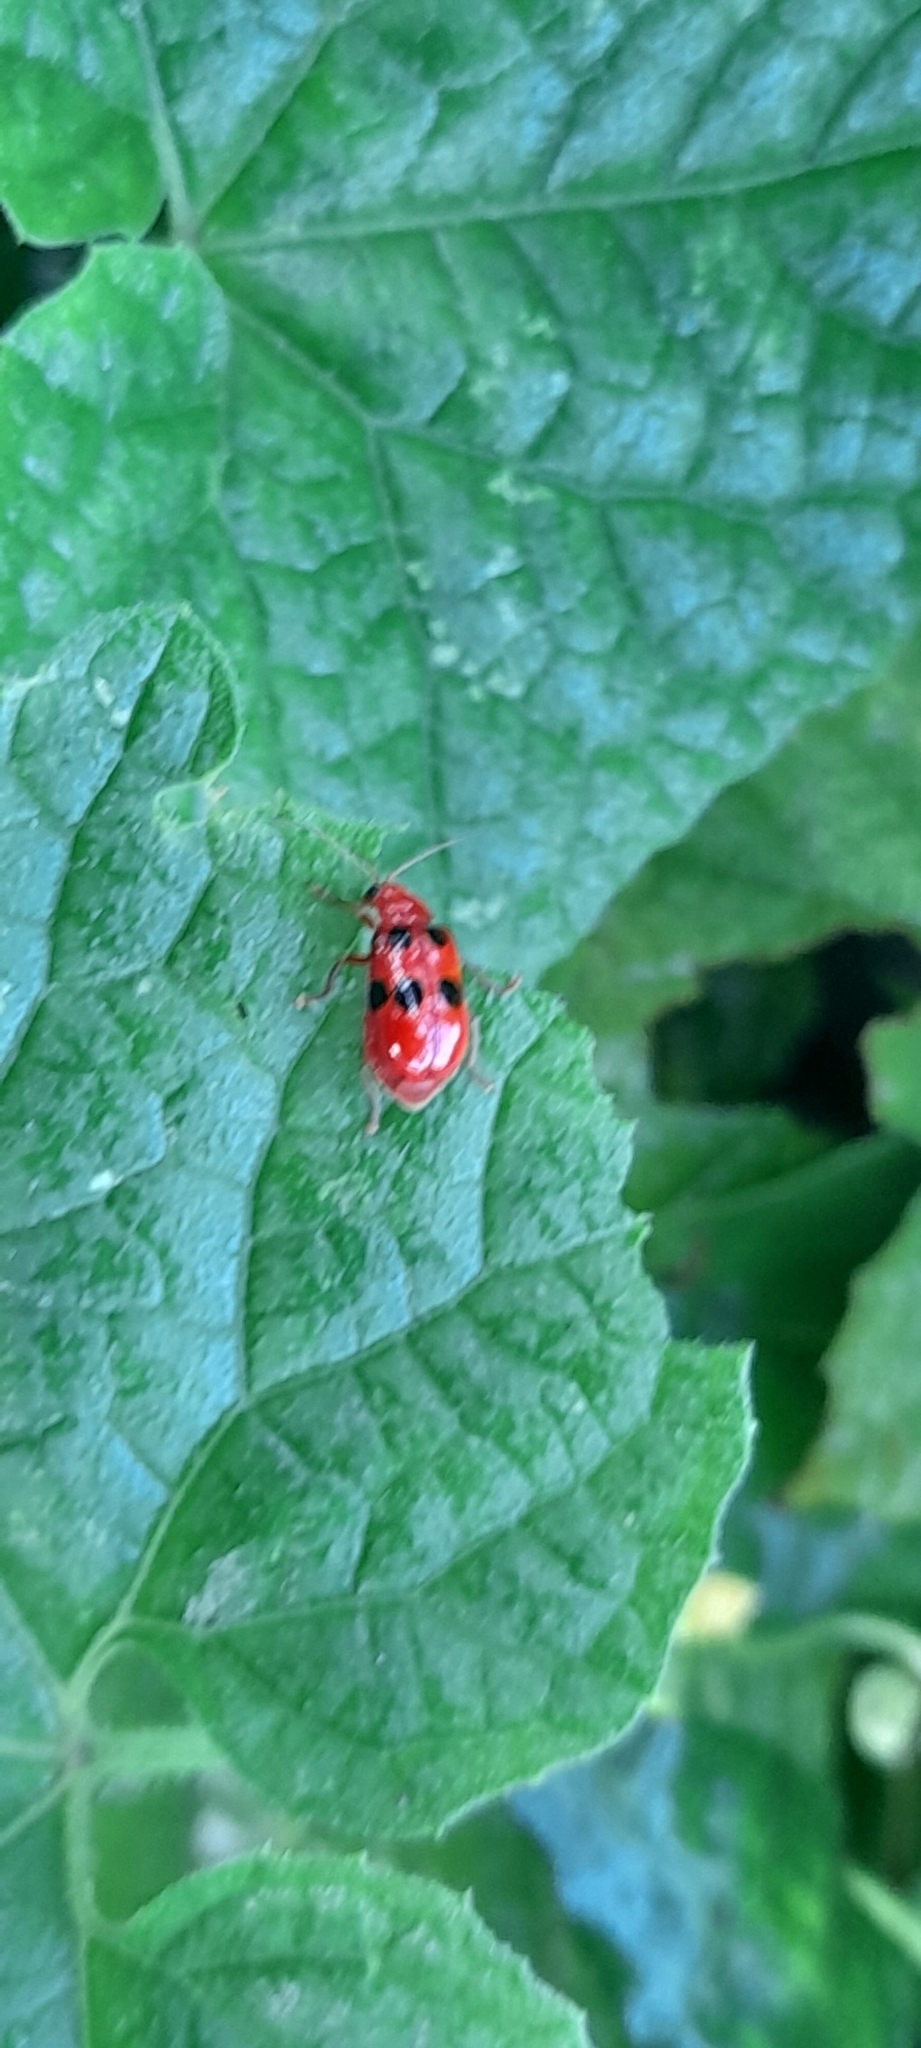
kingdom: Animalia
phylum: Arthropoda
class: Insecta
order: Coleoptera
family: Chrysomelidae
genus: Aulacophora
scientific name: Aulacophora
